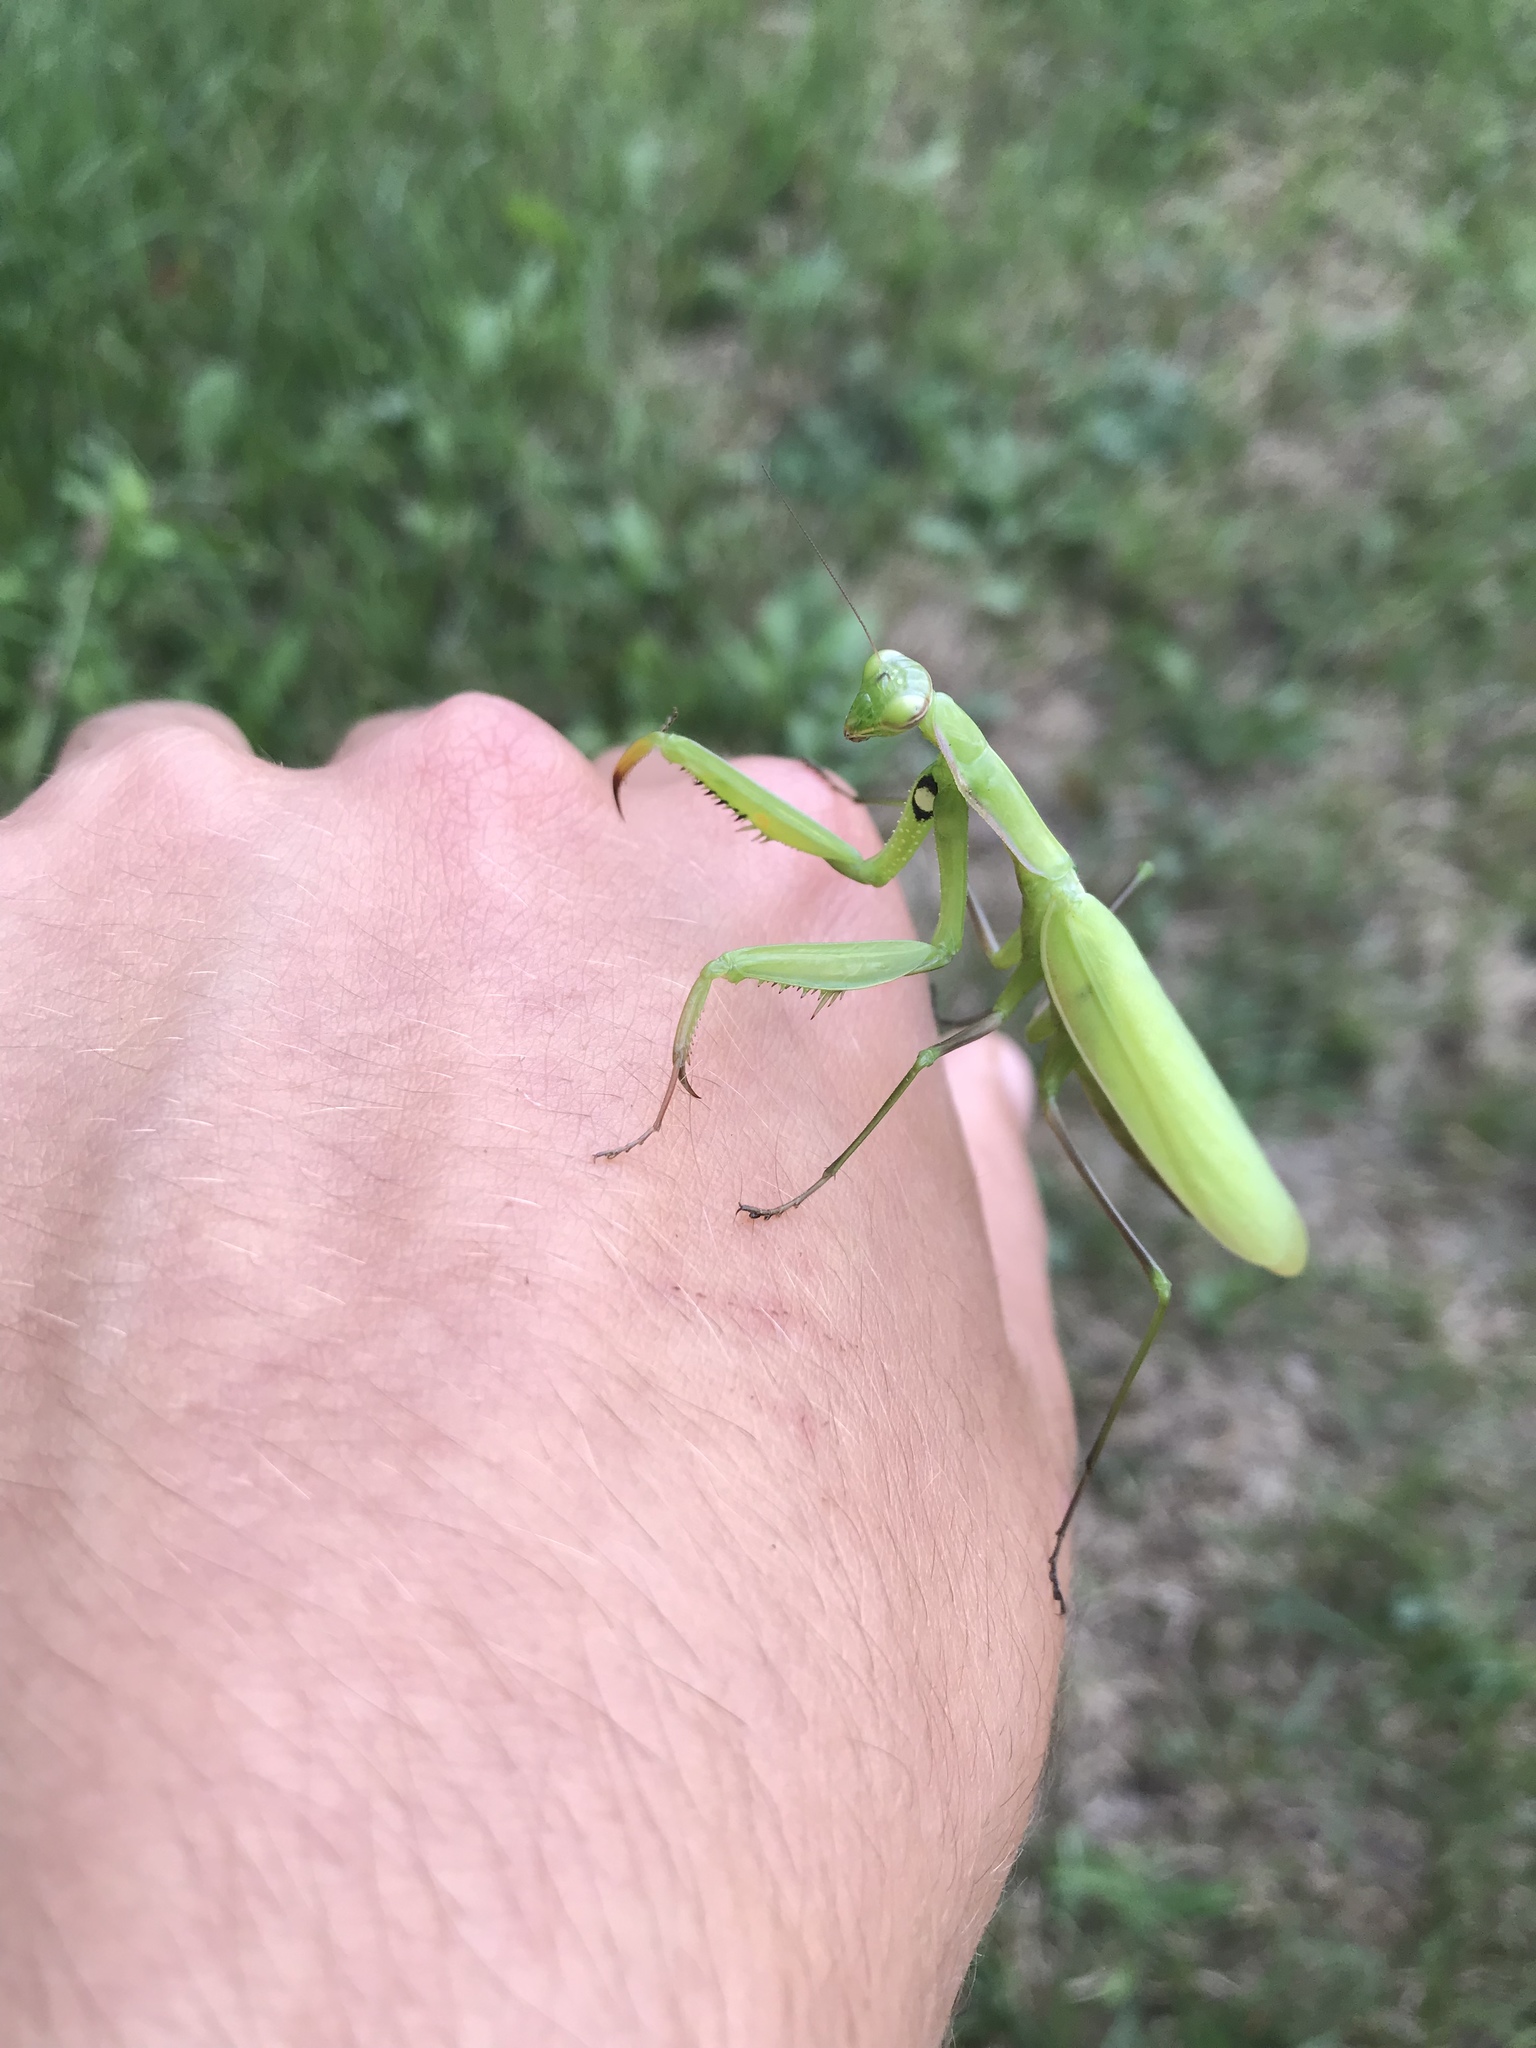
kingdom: Animalia
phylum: Arthropoda
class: Insecta
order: Mantodea
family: Mantidae
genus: Mantis
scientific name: Mantis religiosa
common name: Praying mantis
